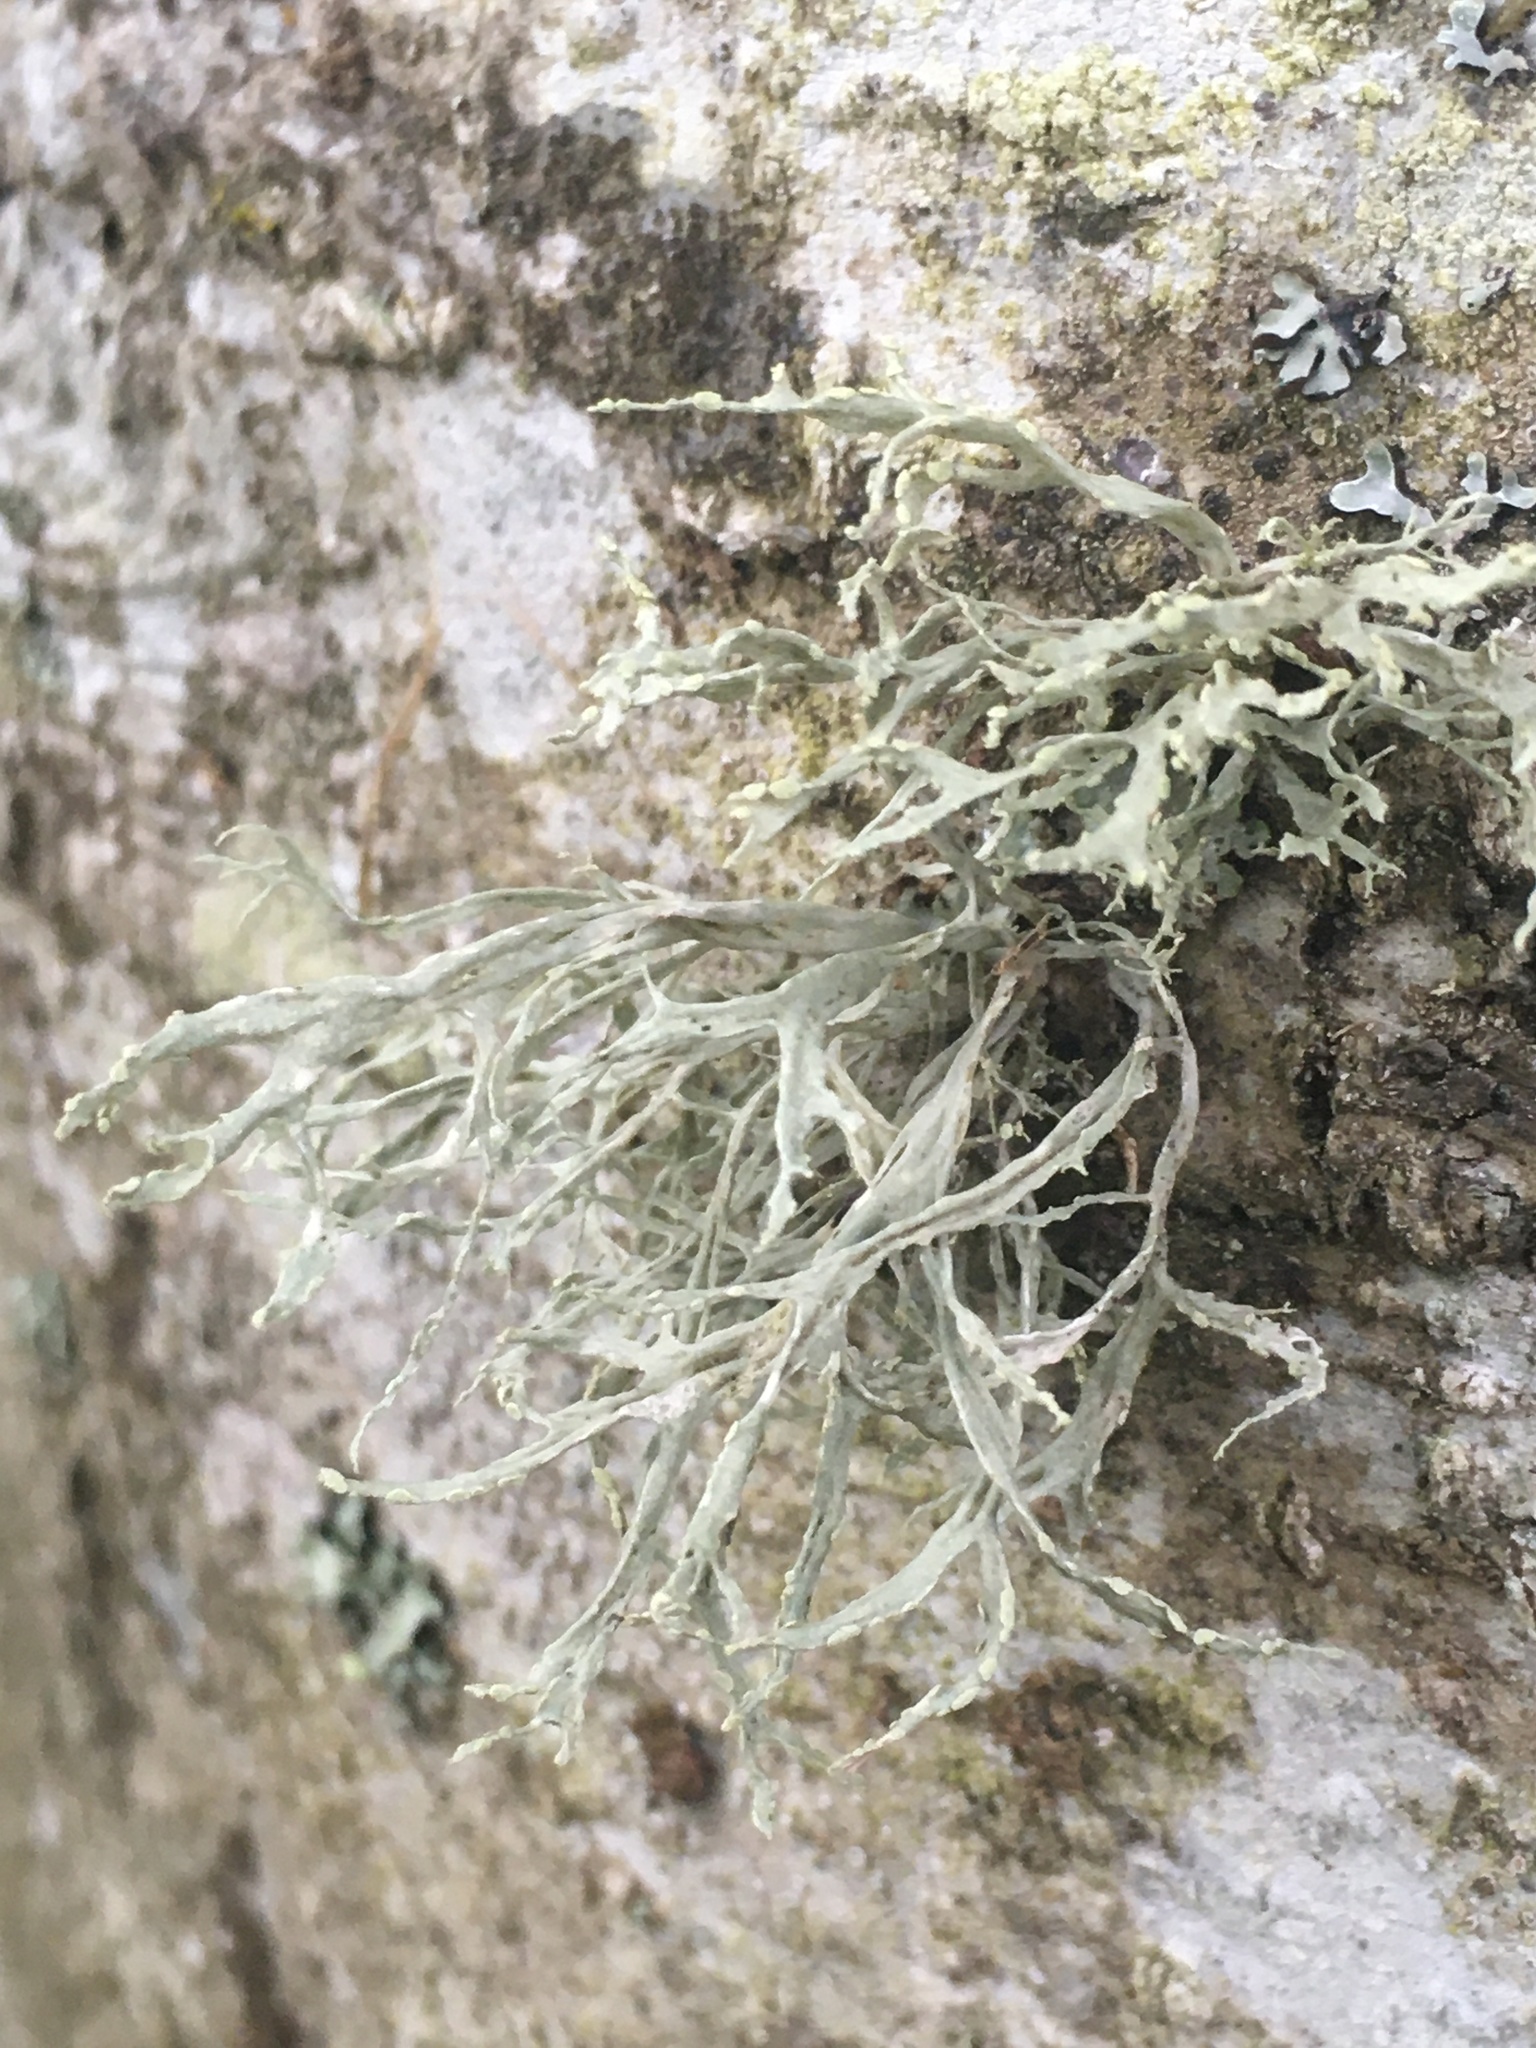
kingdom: Fungi
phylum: Ascomycota
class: Lecanoromycetes
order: Lecanorales
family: Ramalinaceae
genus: Ramalina
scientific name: Ramalina farinacea
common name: Farinose cartilage lichen
